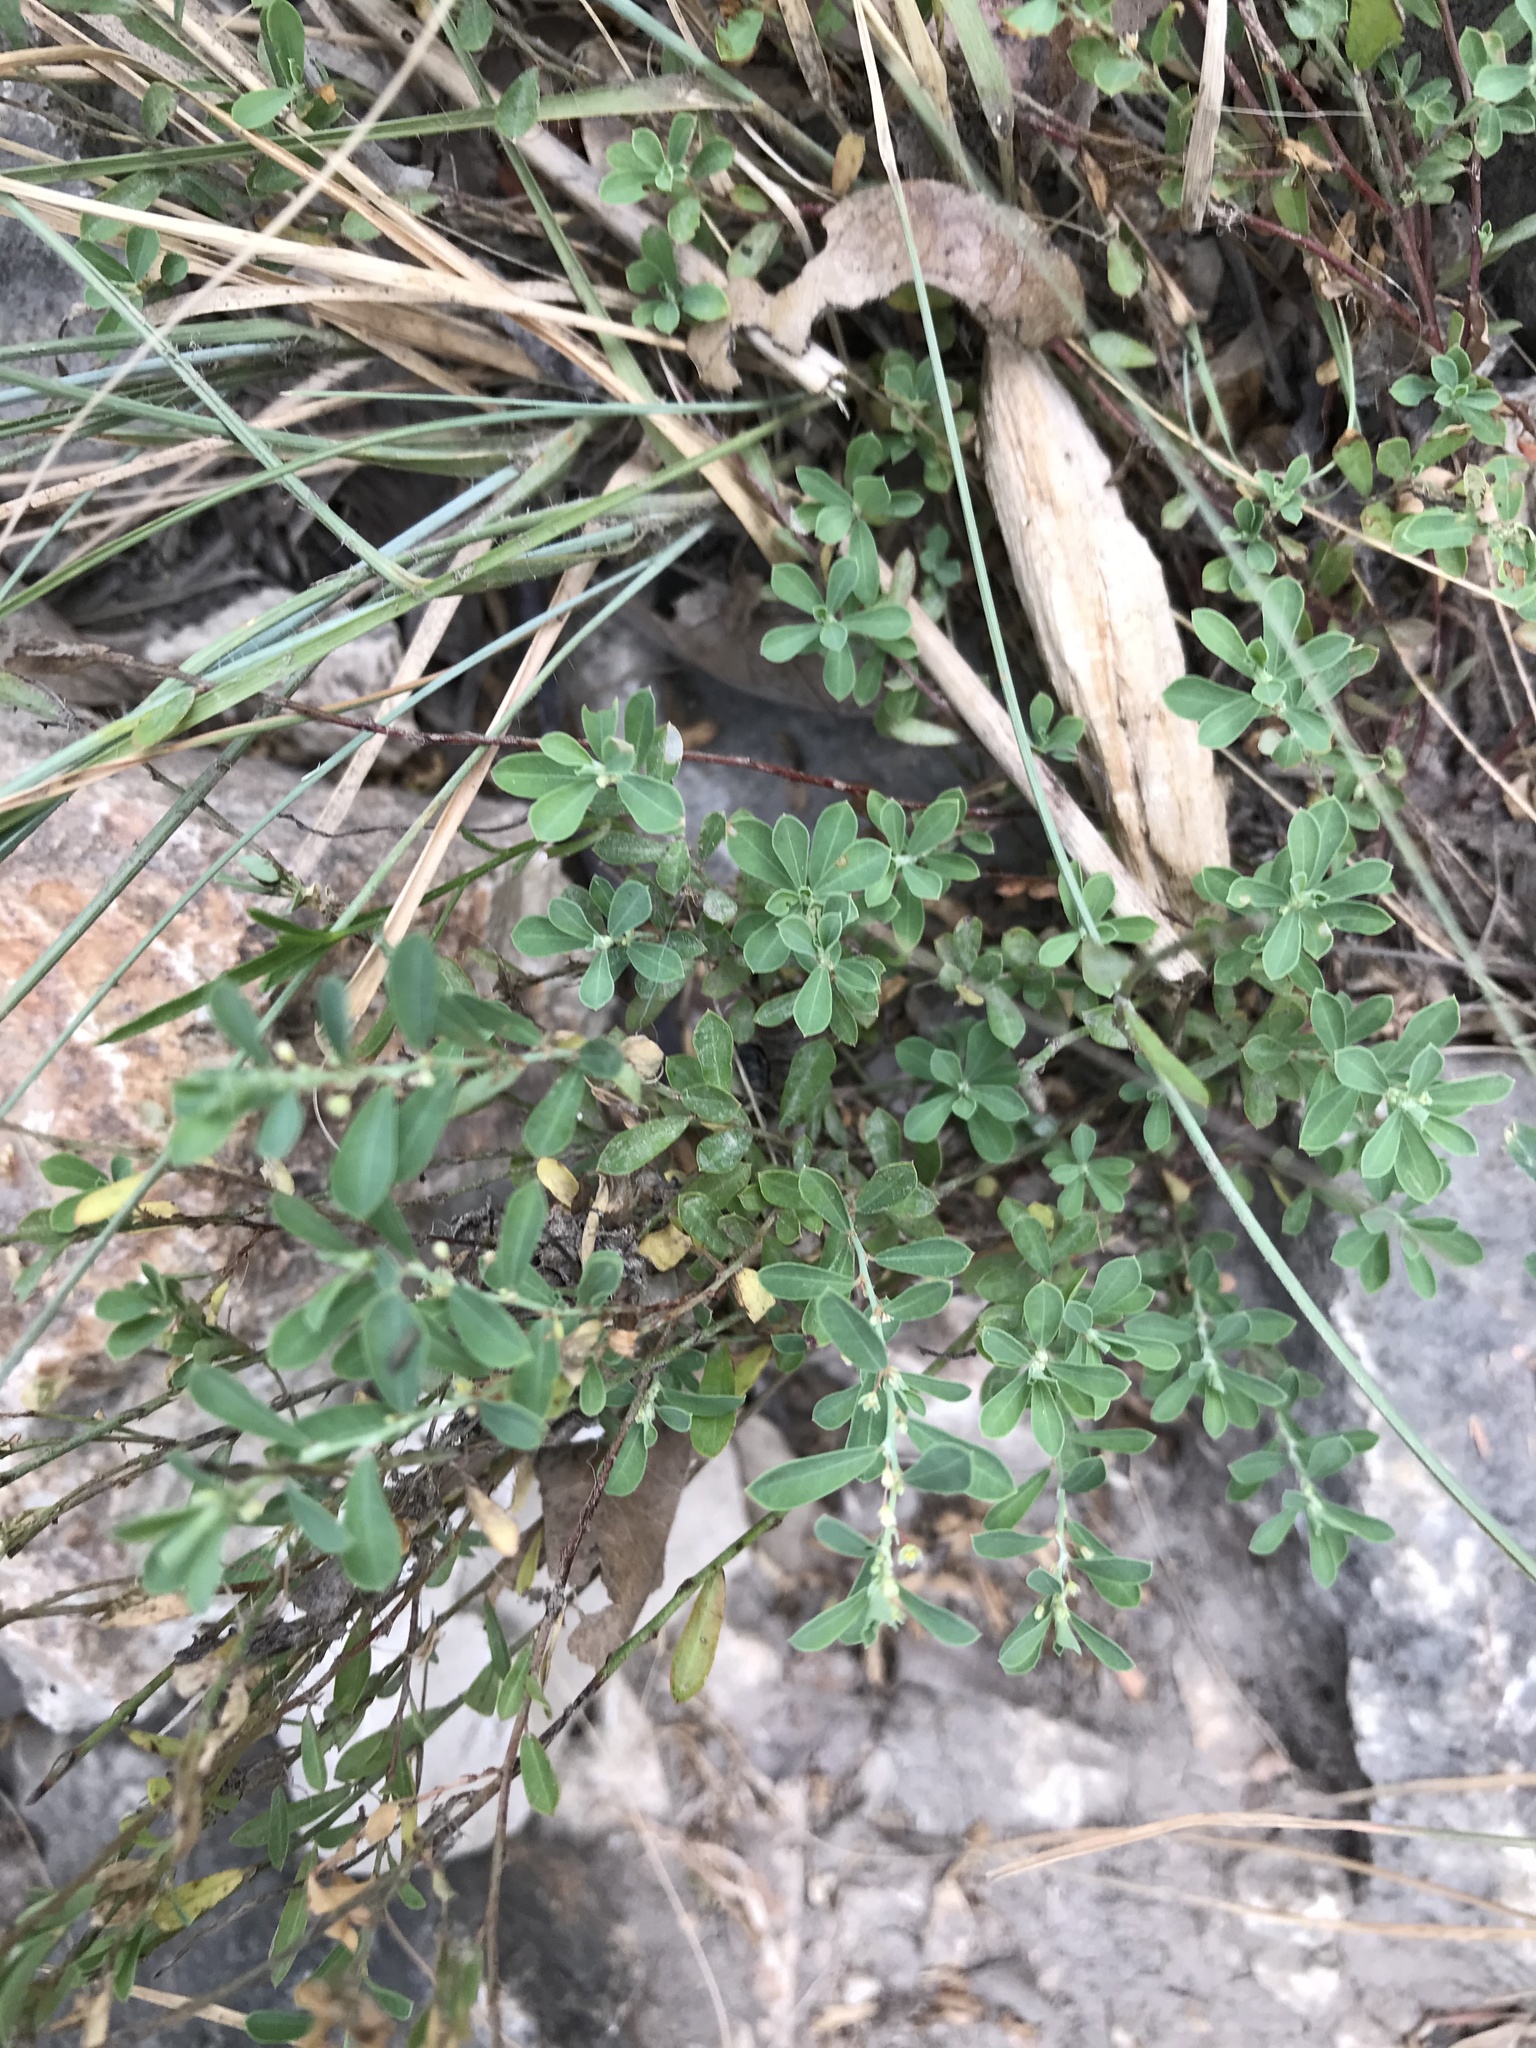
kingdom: Plantae
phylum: Tracheophyta
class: Magnoliopsida
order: Malpighiales
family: Phyllanthaceae
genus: Phyllanthus
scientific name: Phyllanthus polygonoides
